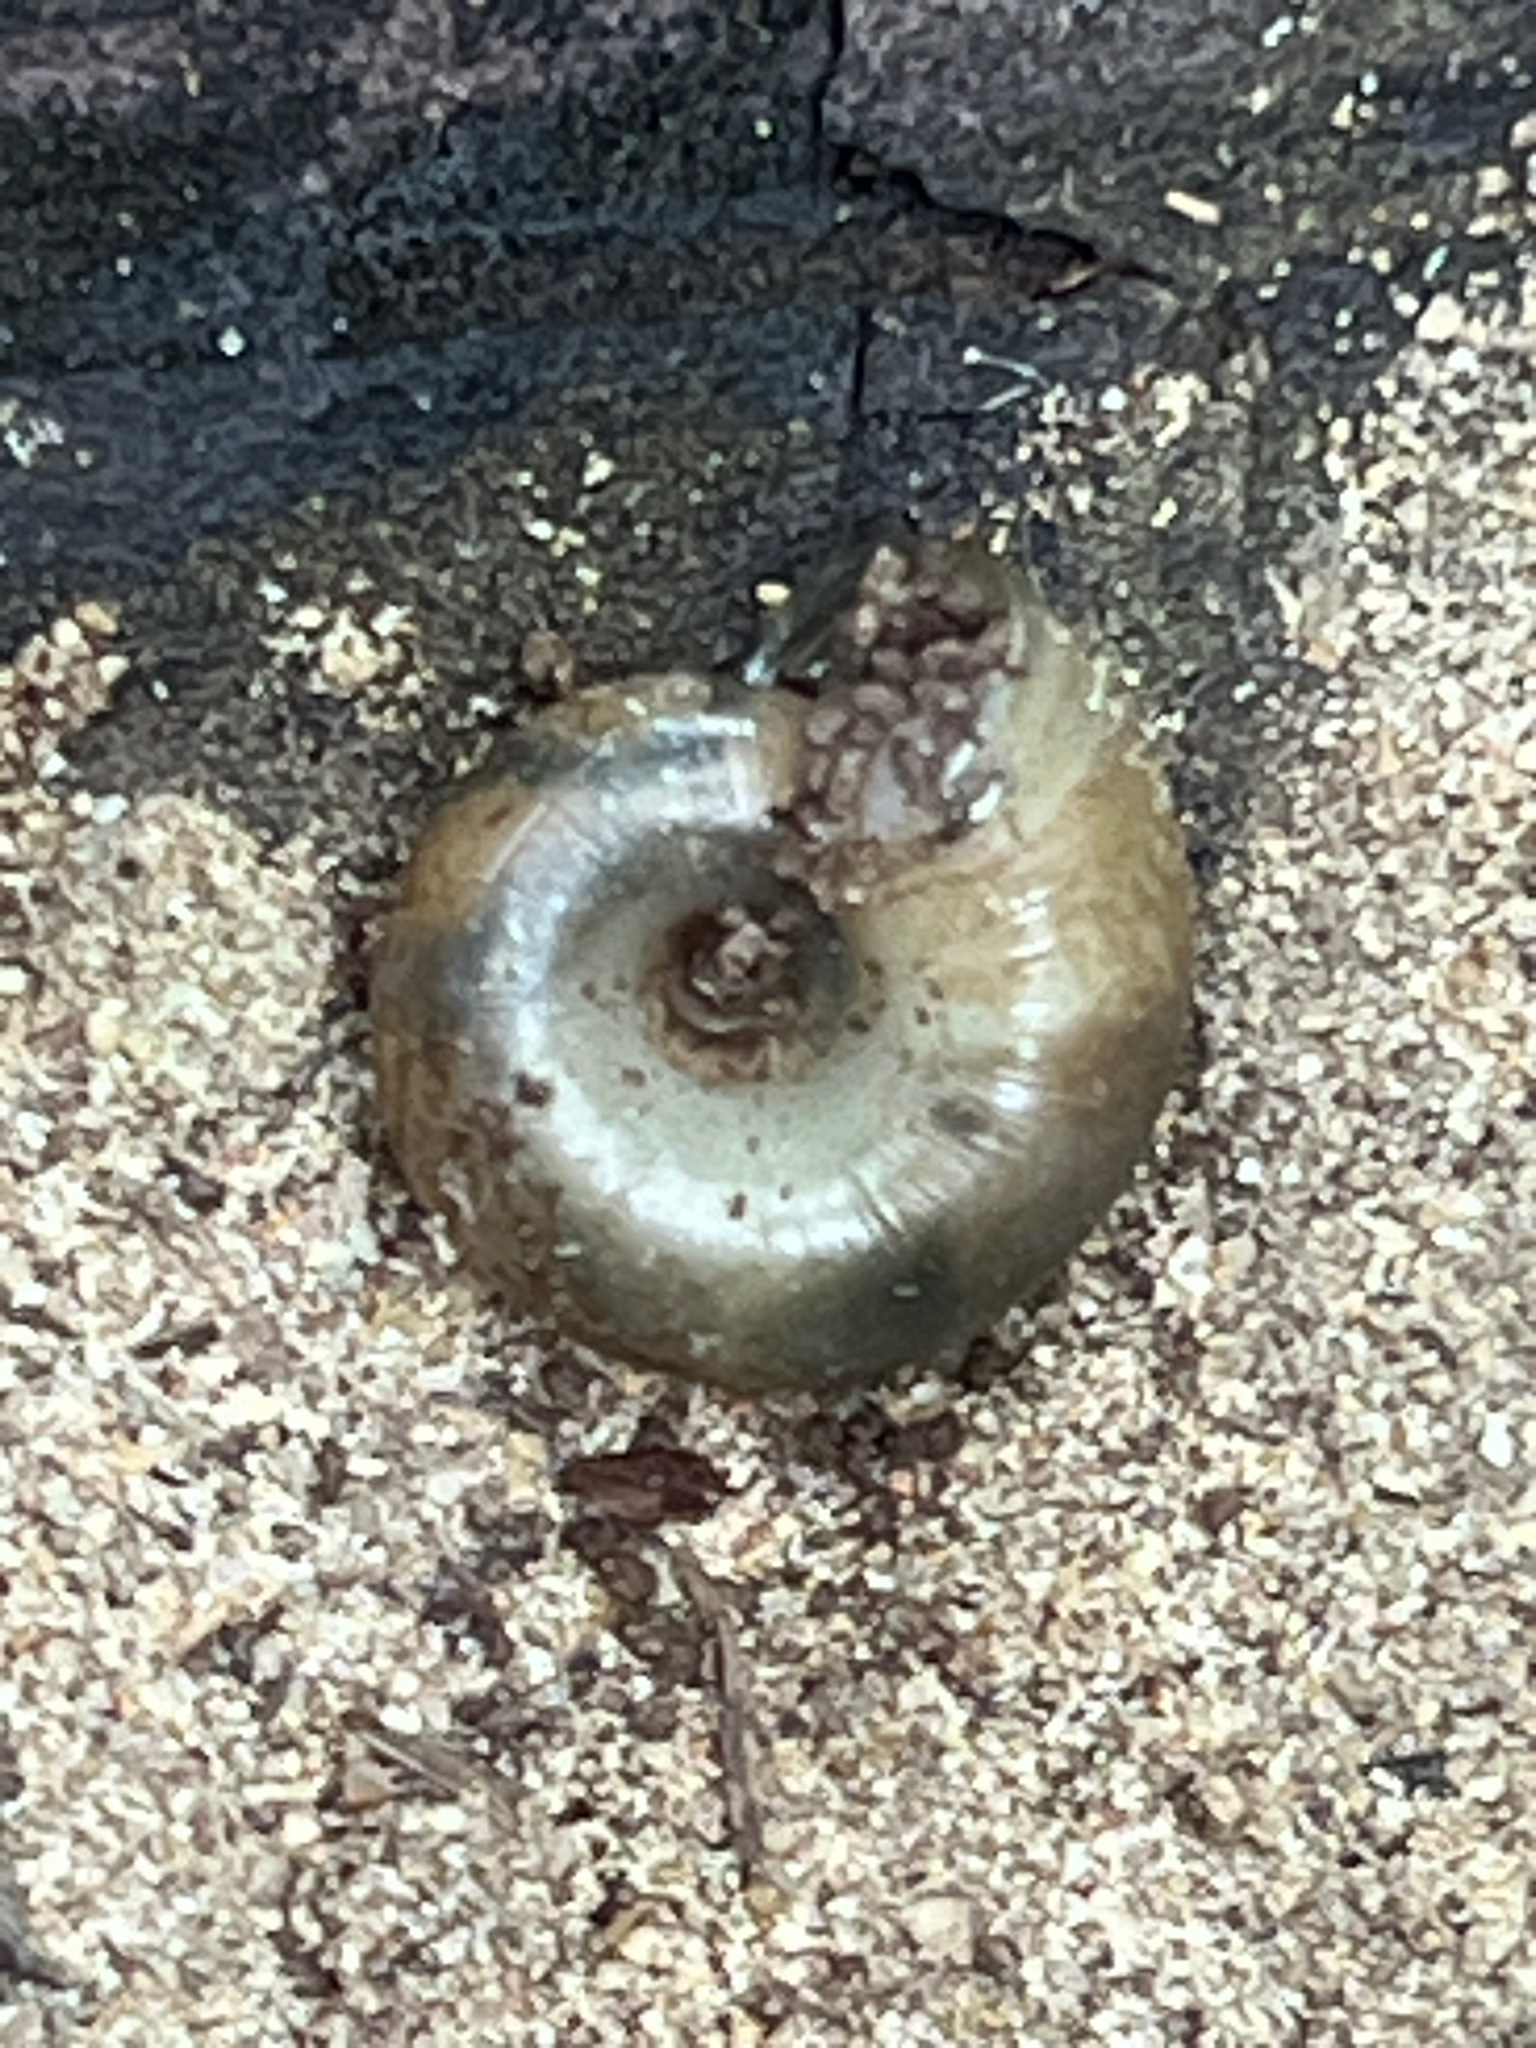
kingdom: Animalia
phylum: Mollusca
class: Gastropoda
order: Stylommatophora
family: Haplotrematidae
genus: Haplotrema
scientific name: Haplotrema minimum
